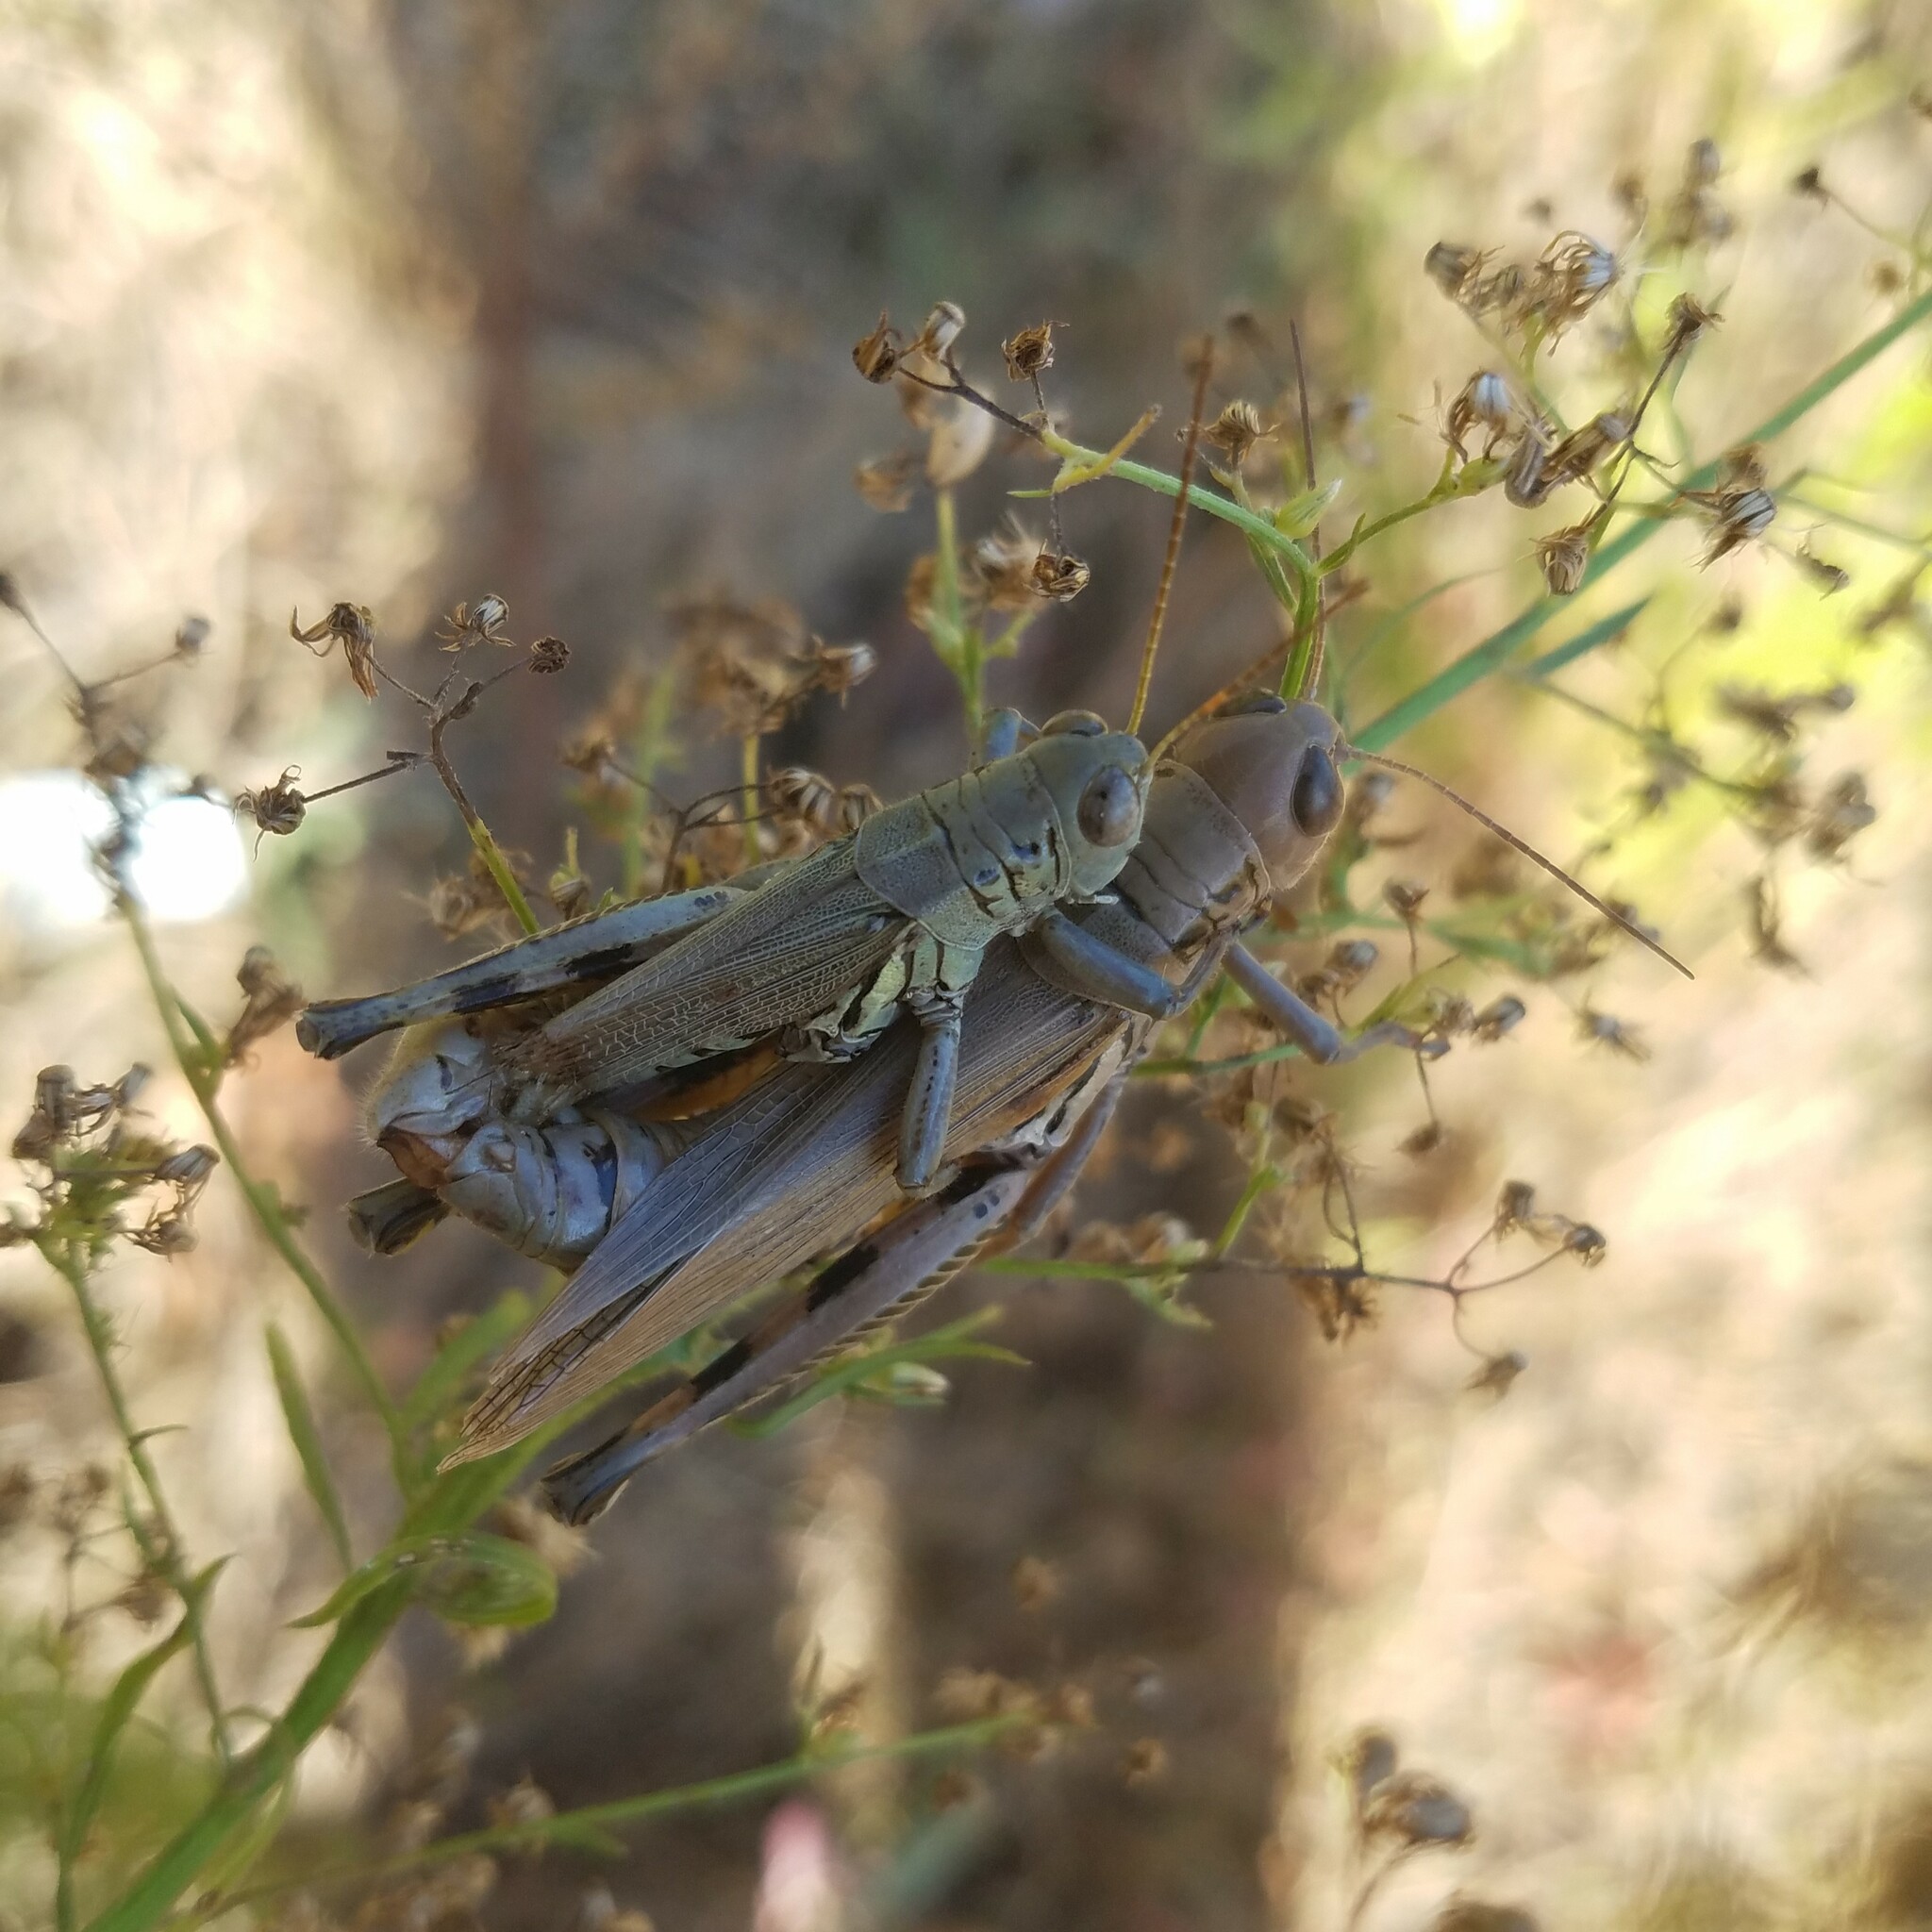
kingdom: Animalia
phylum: Arthropoda
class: Insecta
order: Orthoptera
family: Acrididae
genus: Melanoplus
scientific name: Melanoplus differentialis
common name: Differential grasshopper
